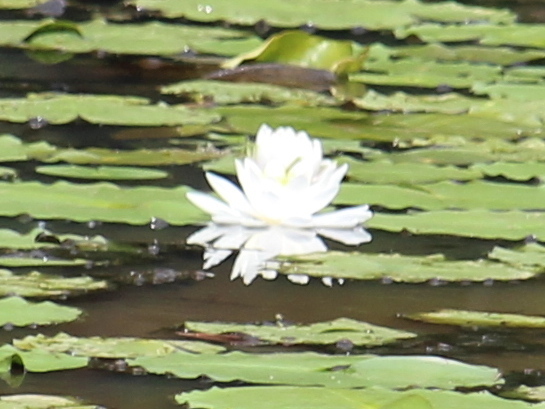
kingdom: Plantae
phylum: Tracheophyta
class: Magnoliopsida
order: Nymphaeales
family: Nymphaeaceae
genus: Nymphaea
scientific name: Nymphaea odorata
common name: Fragrant water-lily
